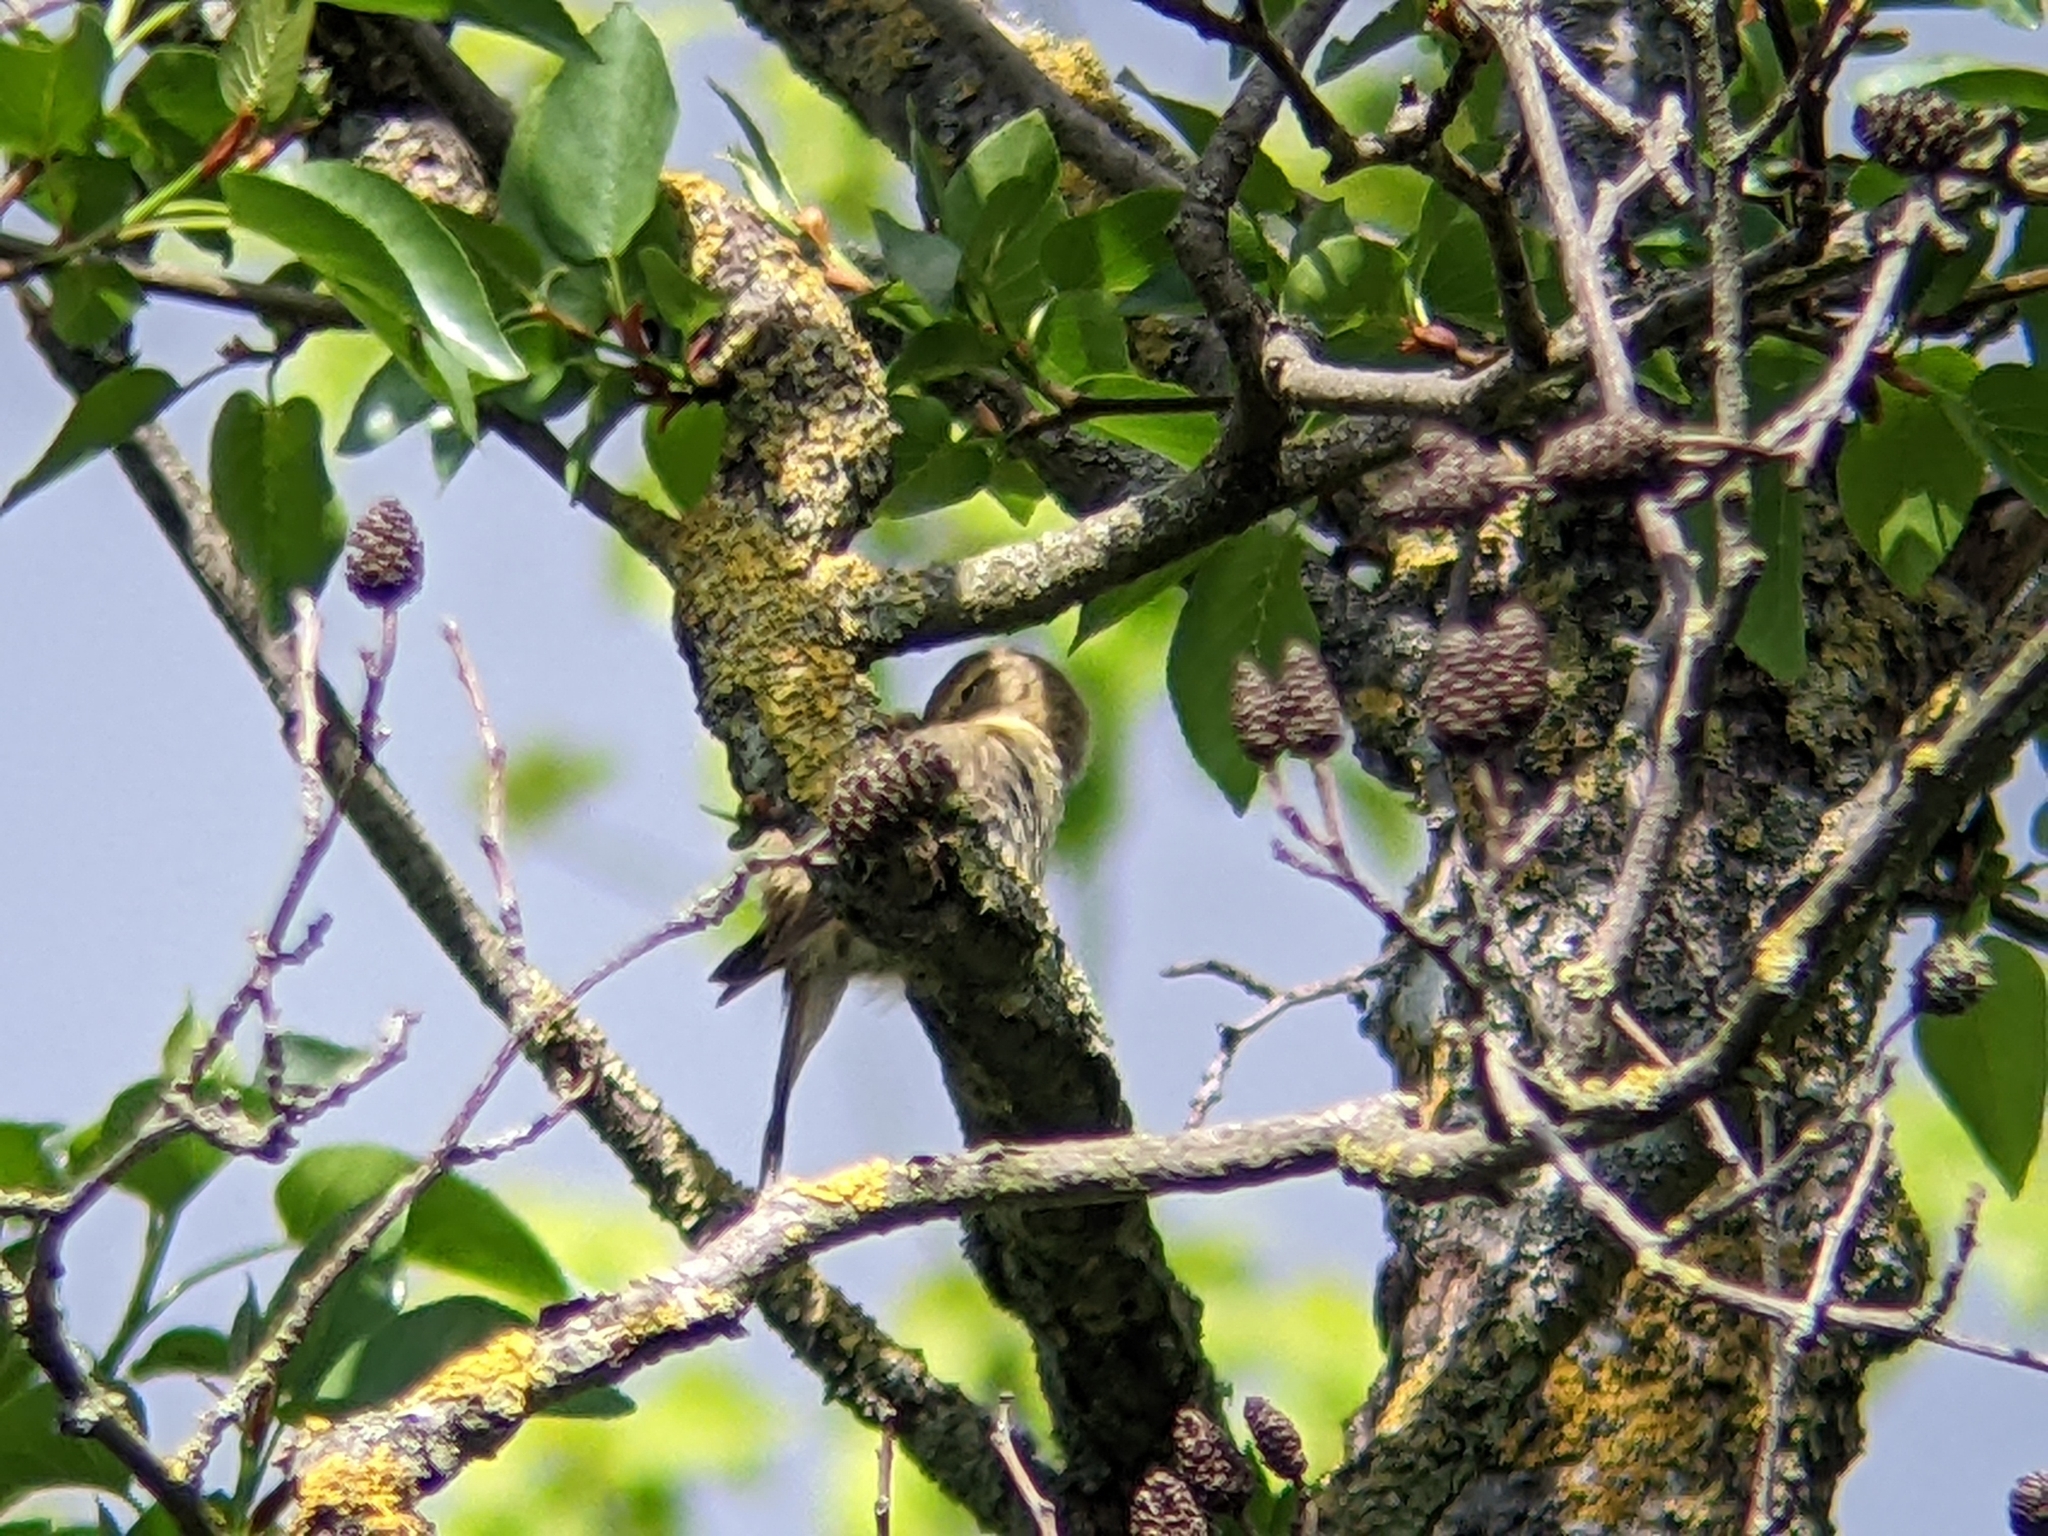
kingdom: Animalia
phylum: Chordata
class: Aves
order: Passeriformes
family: Phylloscopidae
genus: Phylloscopus
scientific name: Phylloscopus ibericus
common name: Iberian chiffchaff
